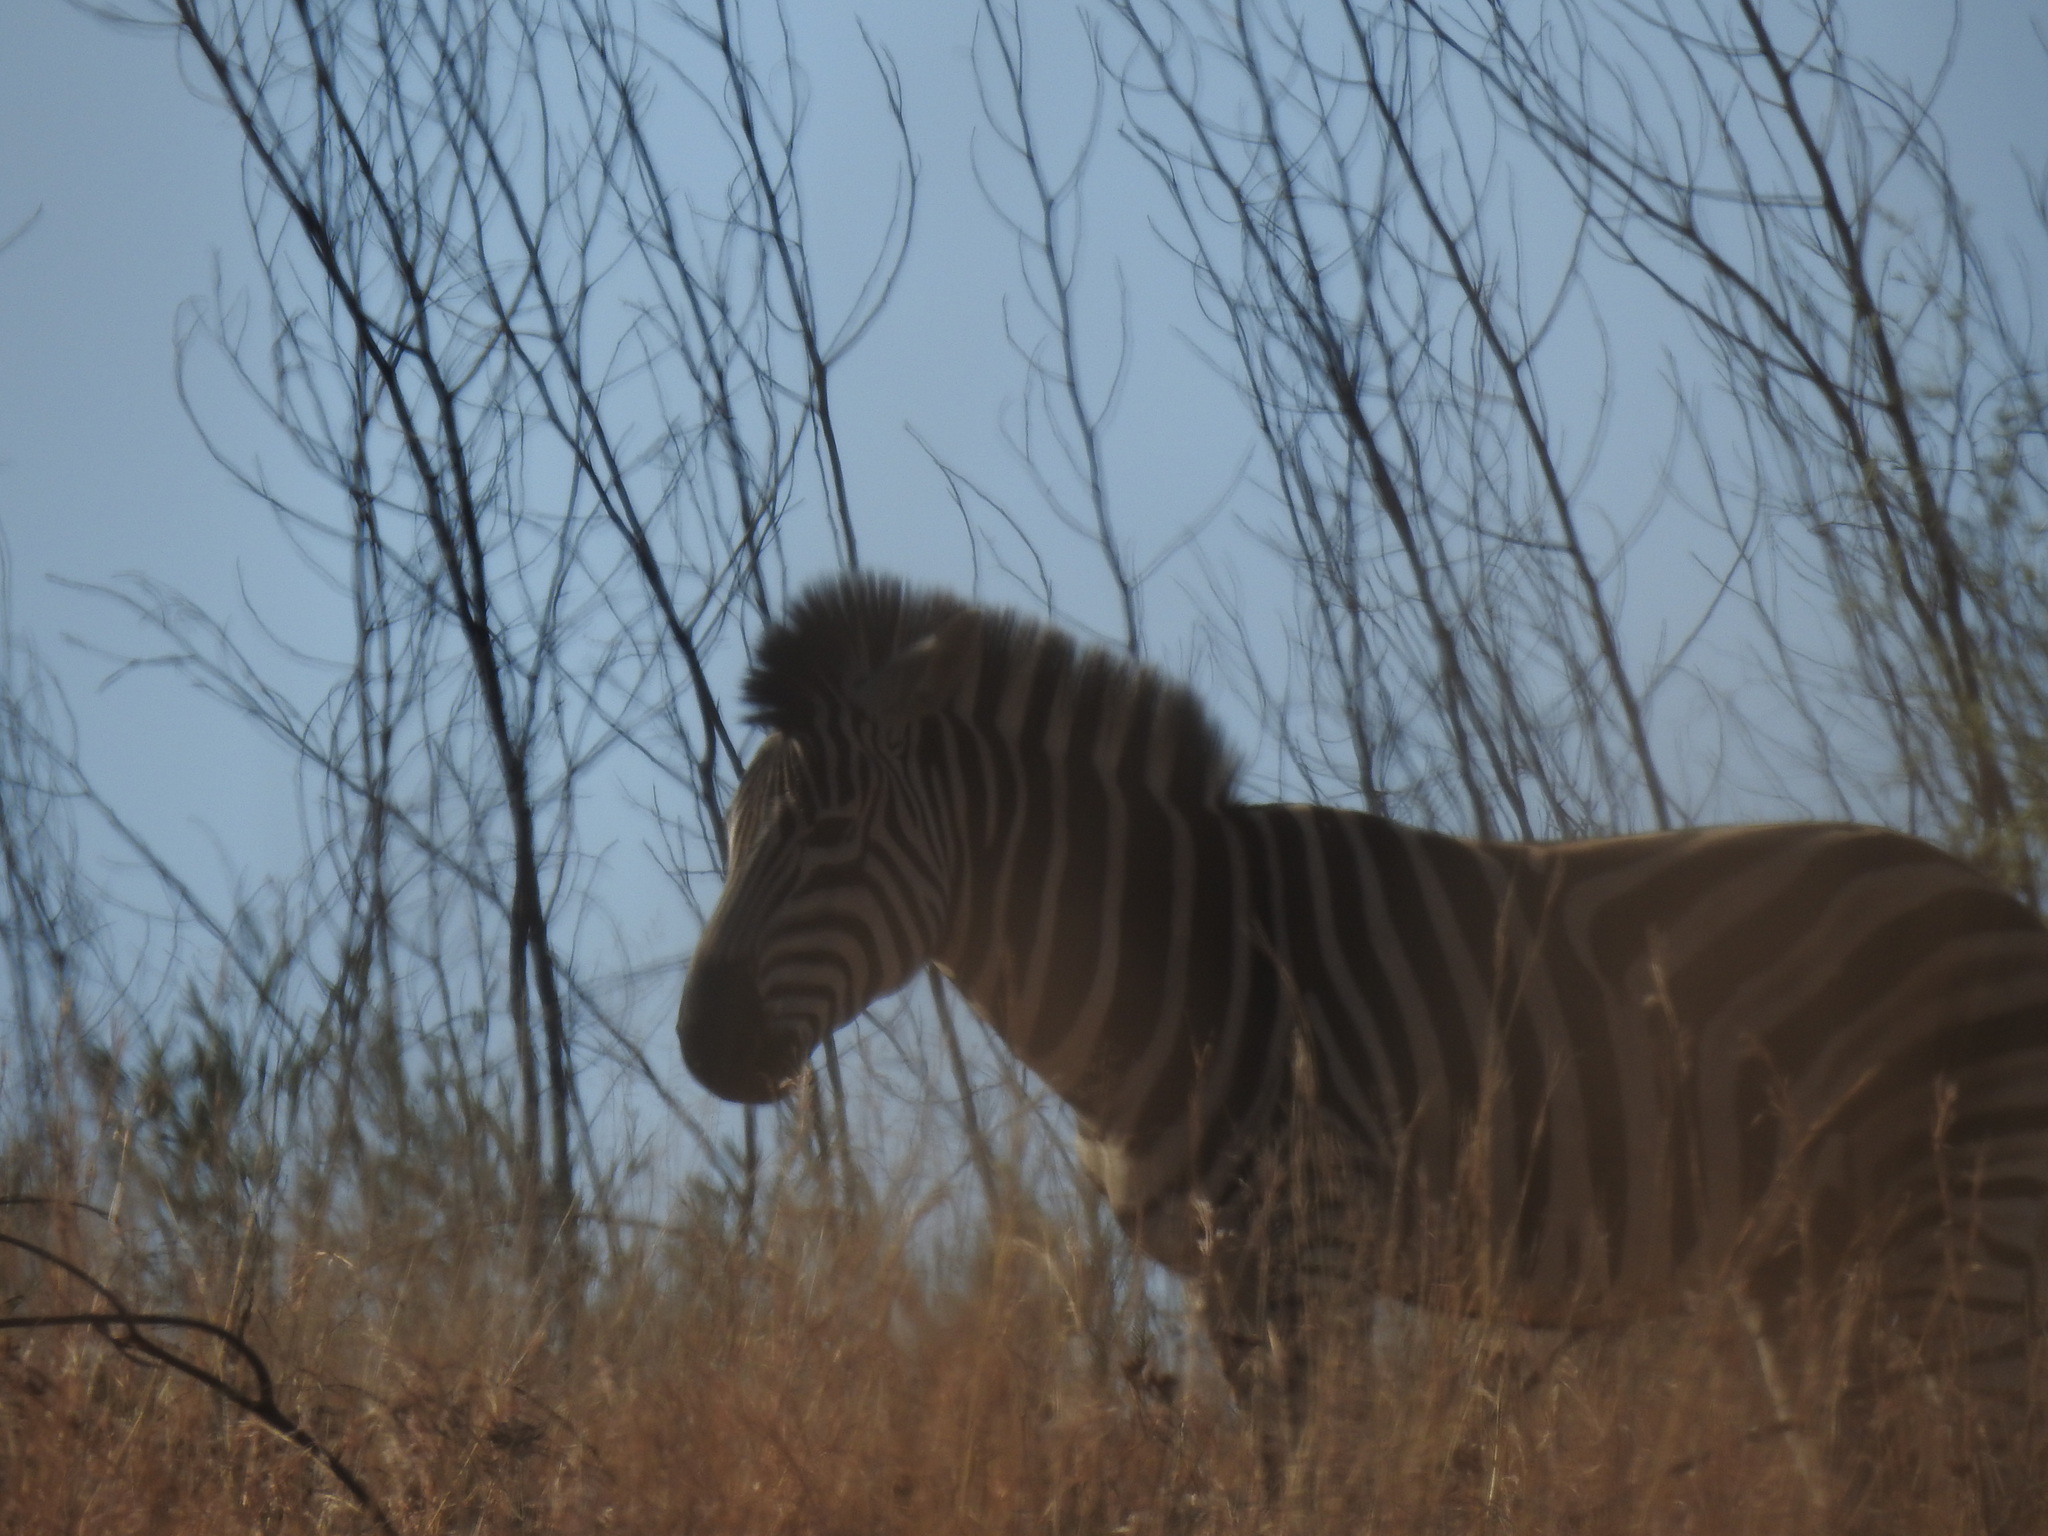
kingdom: Animalia
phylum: Chordata
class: Mammalia
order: Perissodactyla
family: Equidae
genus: Equus
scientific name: Equus quagga
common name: Plains zebra
